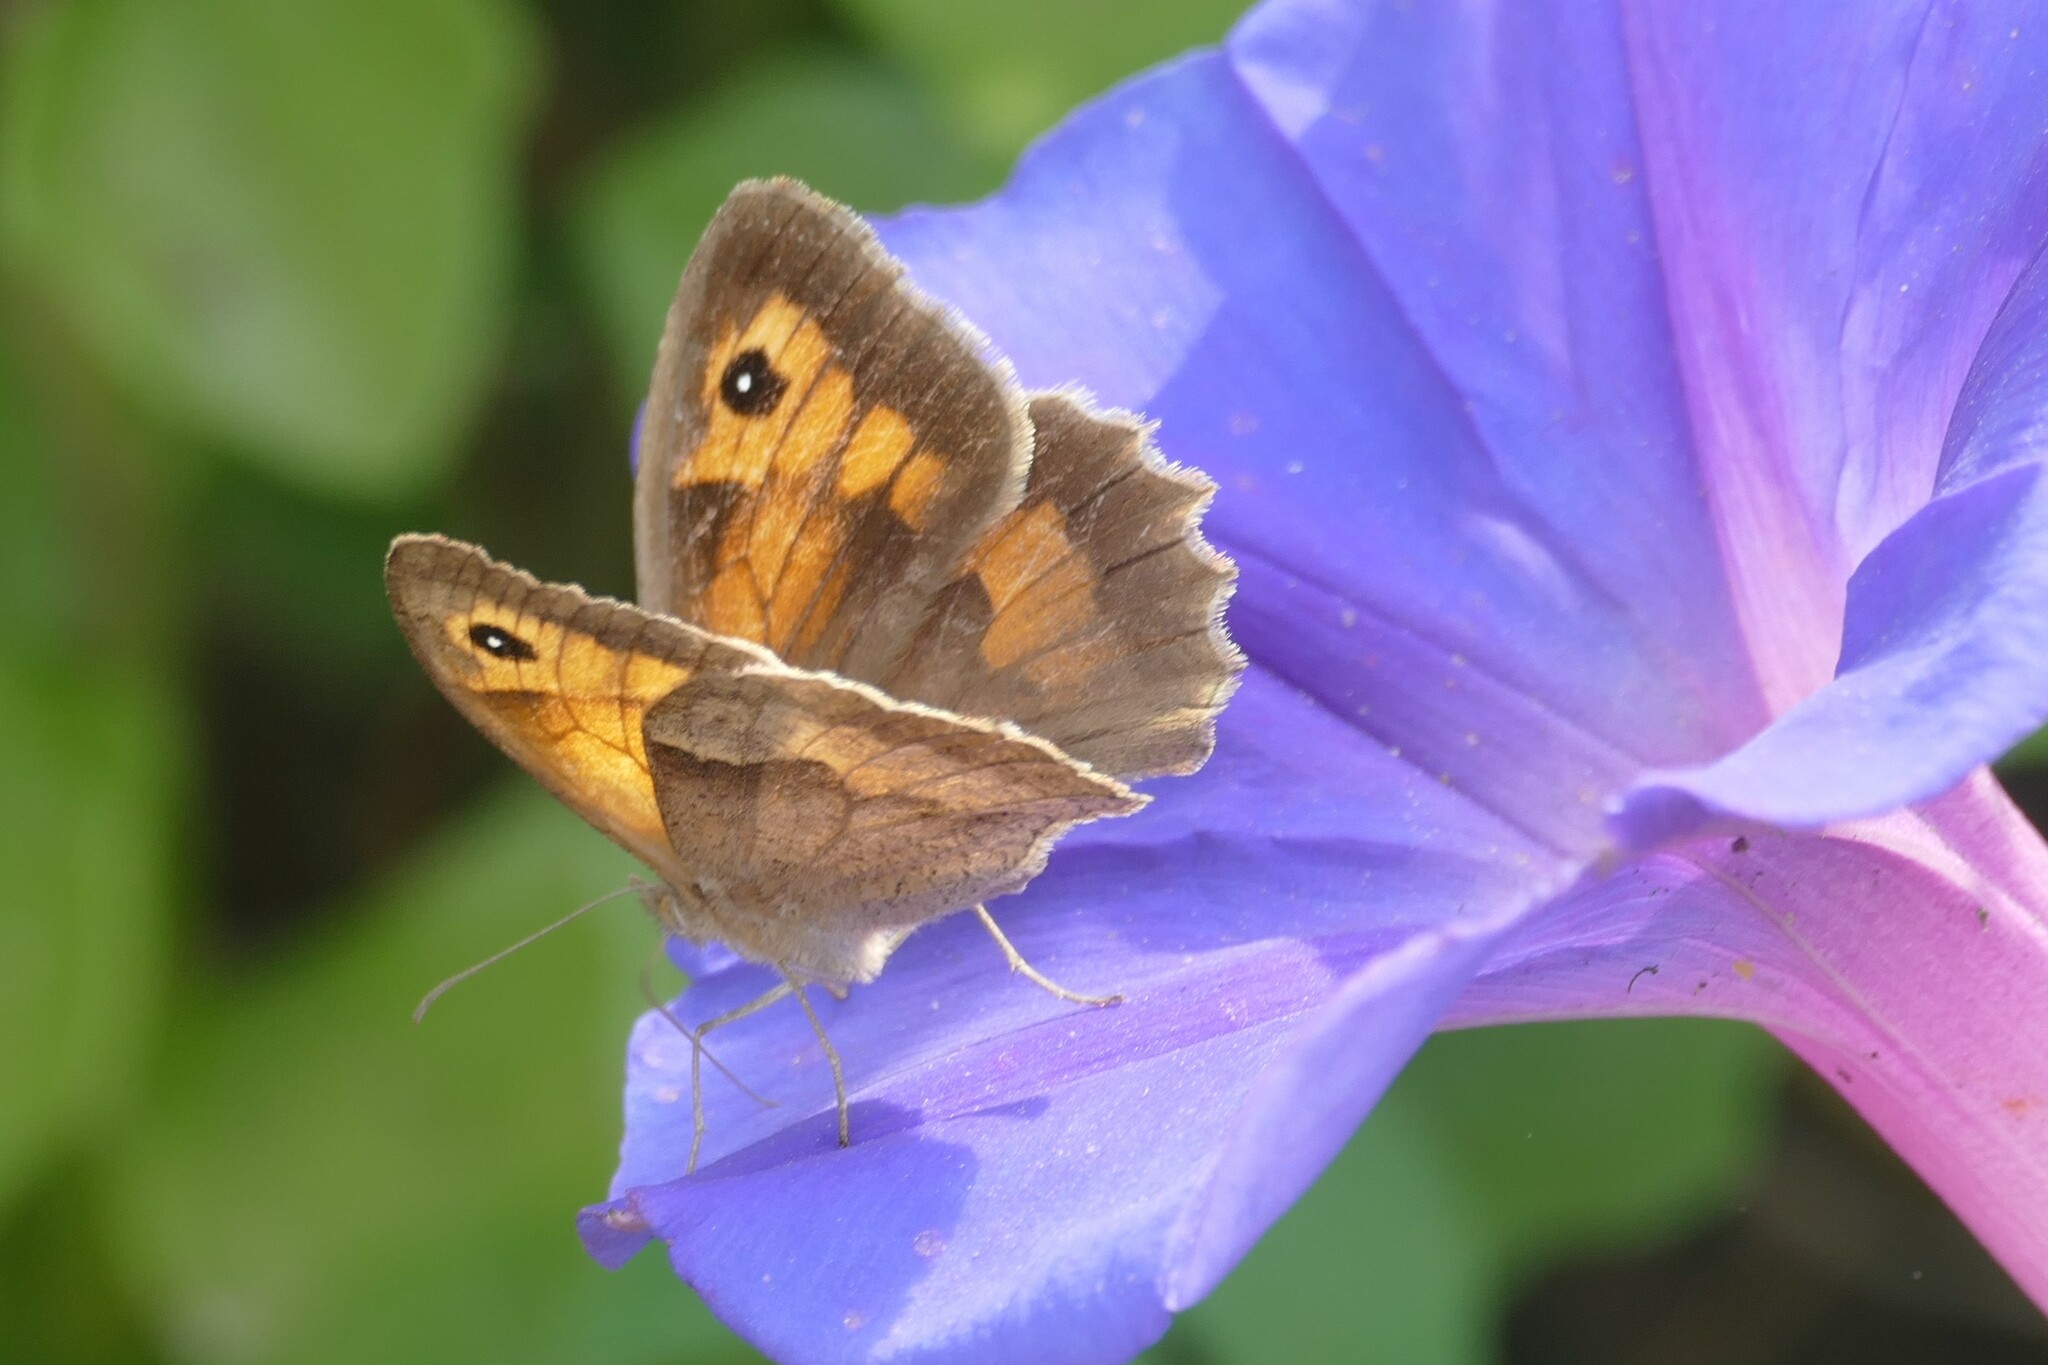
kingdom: Animalia
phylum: Arthropoda
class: Insecta
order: Lepidoptera
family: Nymphalidae
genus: Maniola
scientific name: Maniola jurtina
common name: Meadow brown
